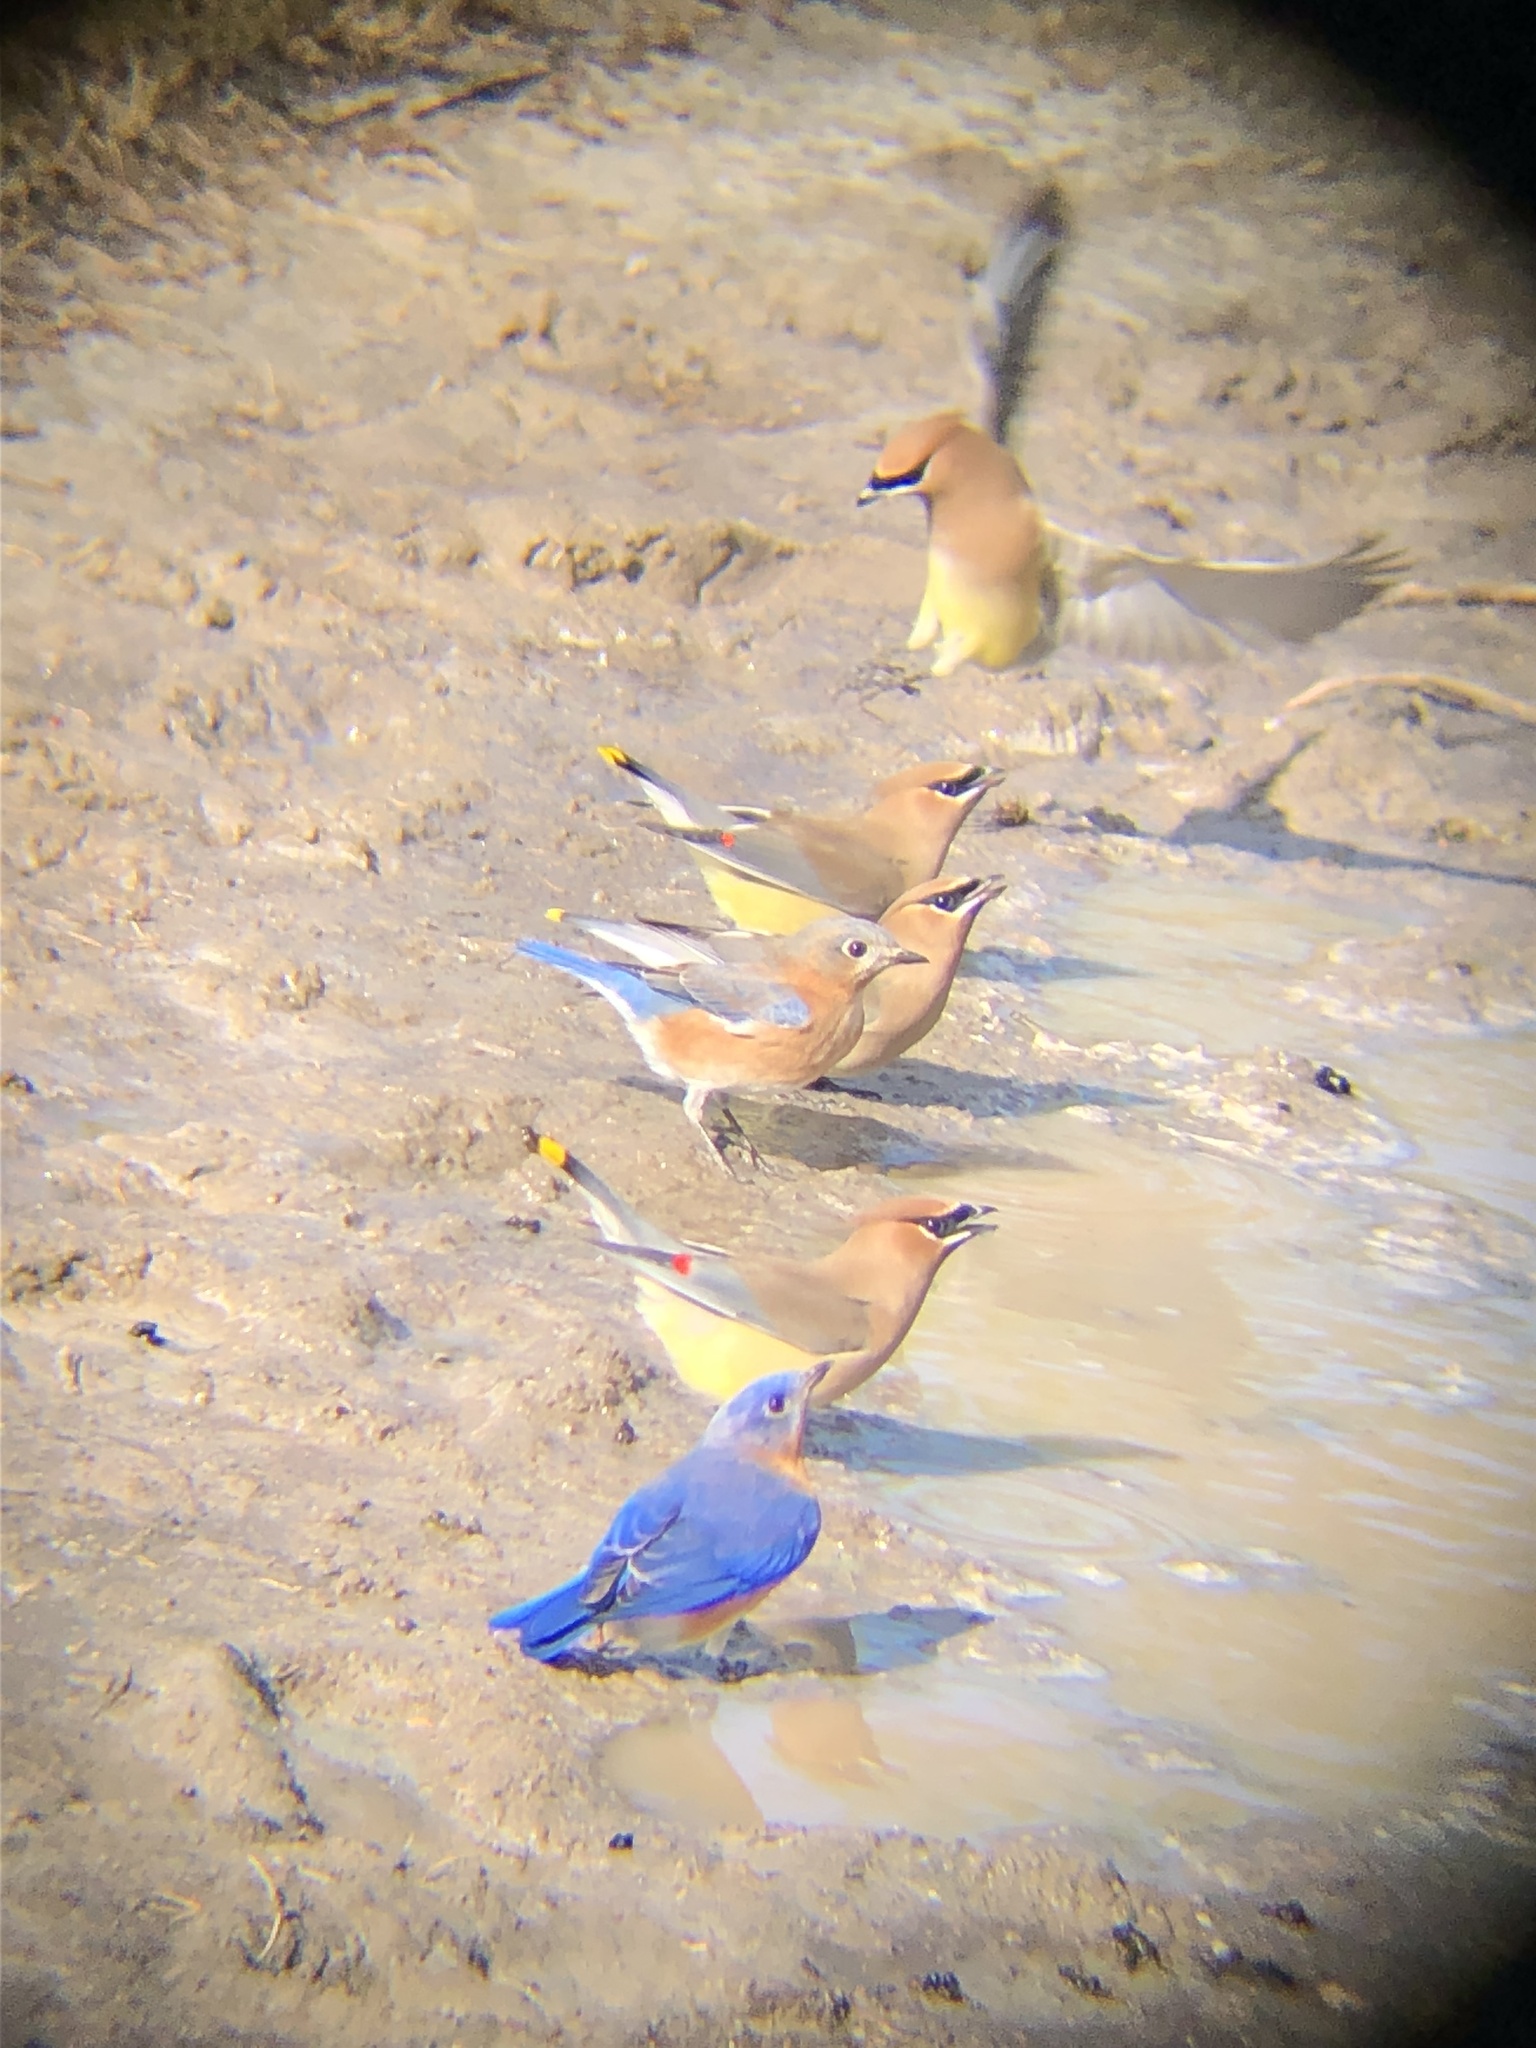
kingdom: Animalia
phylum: Chordata
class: Aves
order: Passeriformes
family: Bombycillidae
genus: Bombycilla
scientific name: Bombycilla cedrorum
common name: Cedar waxwing
